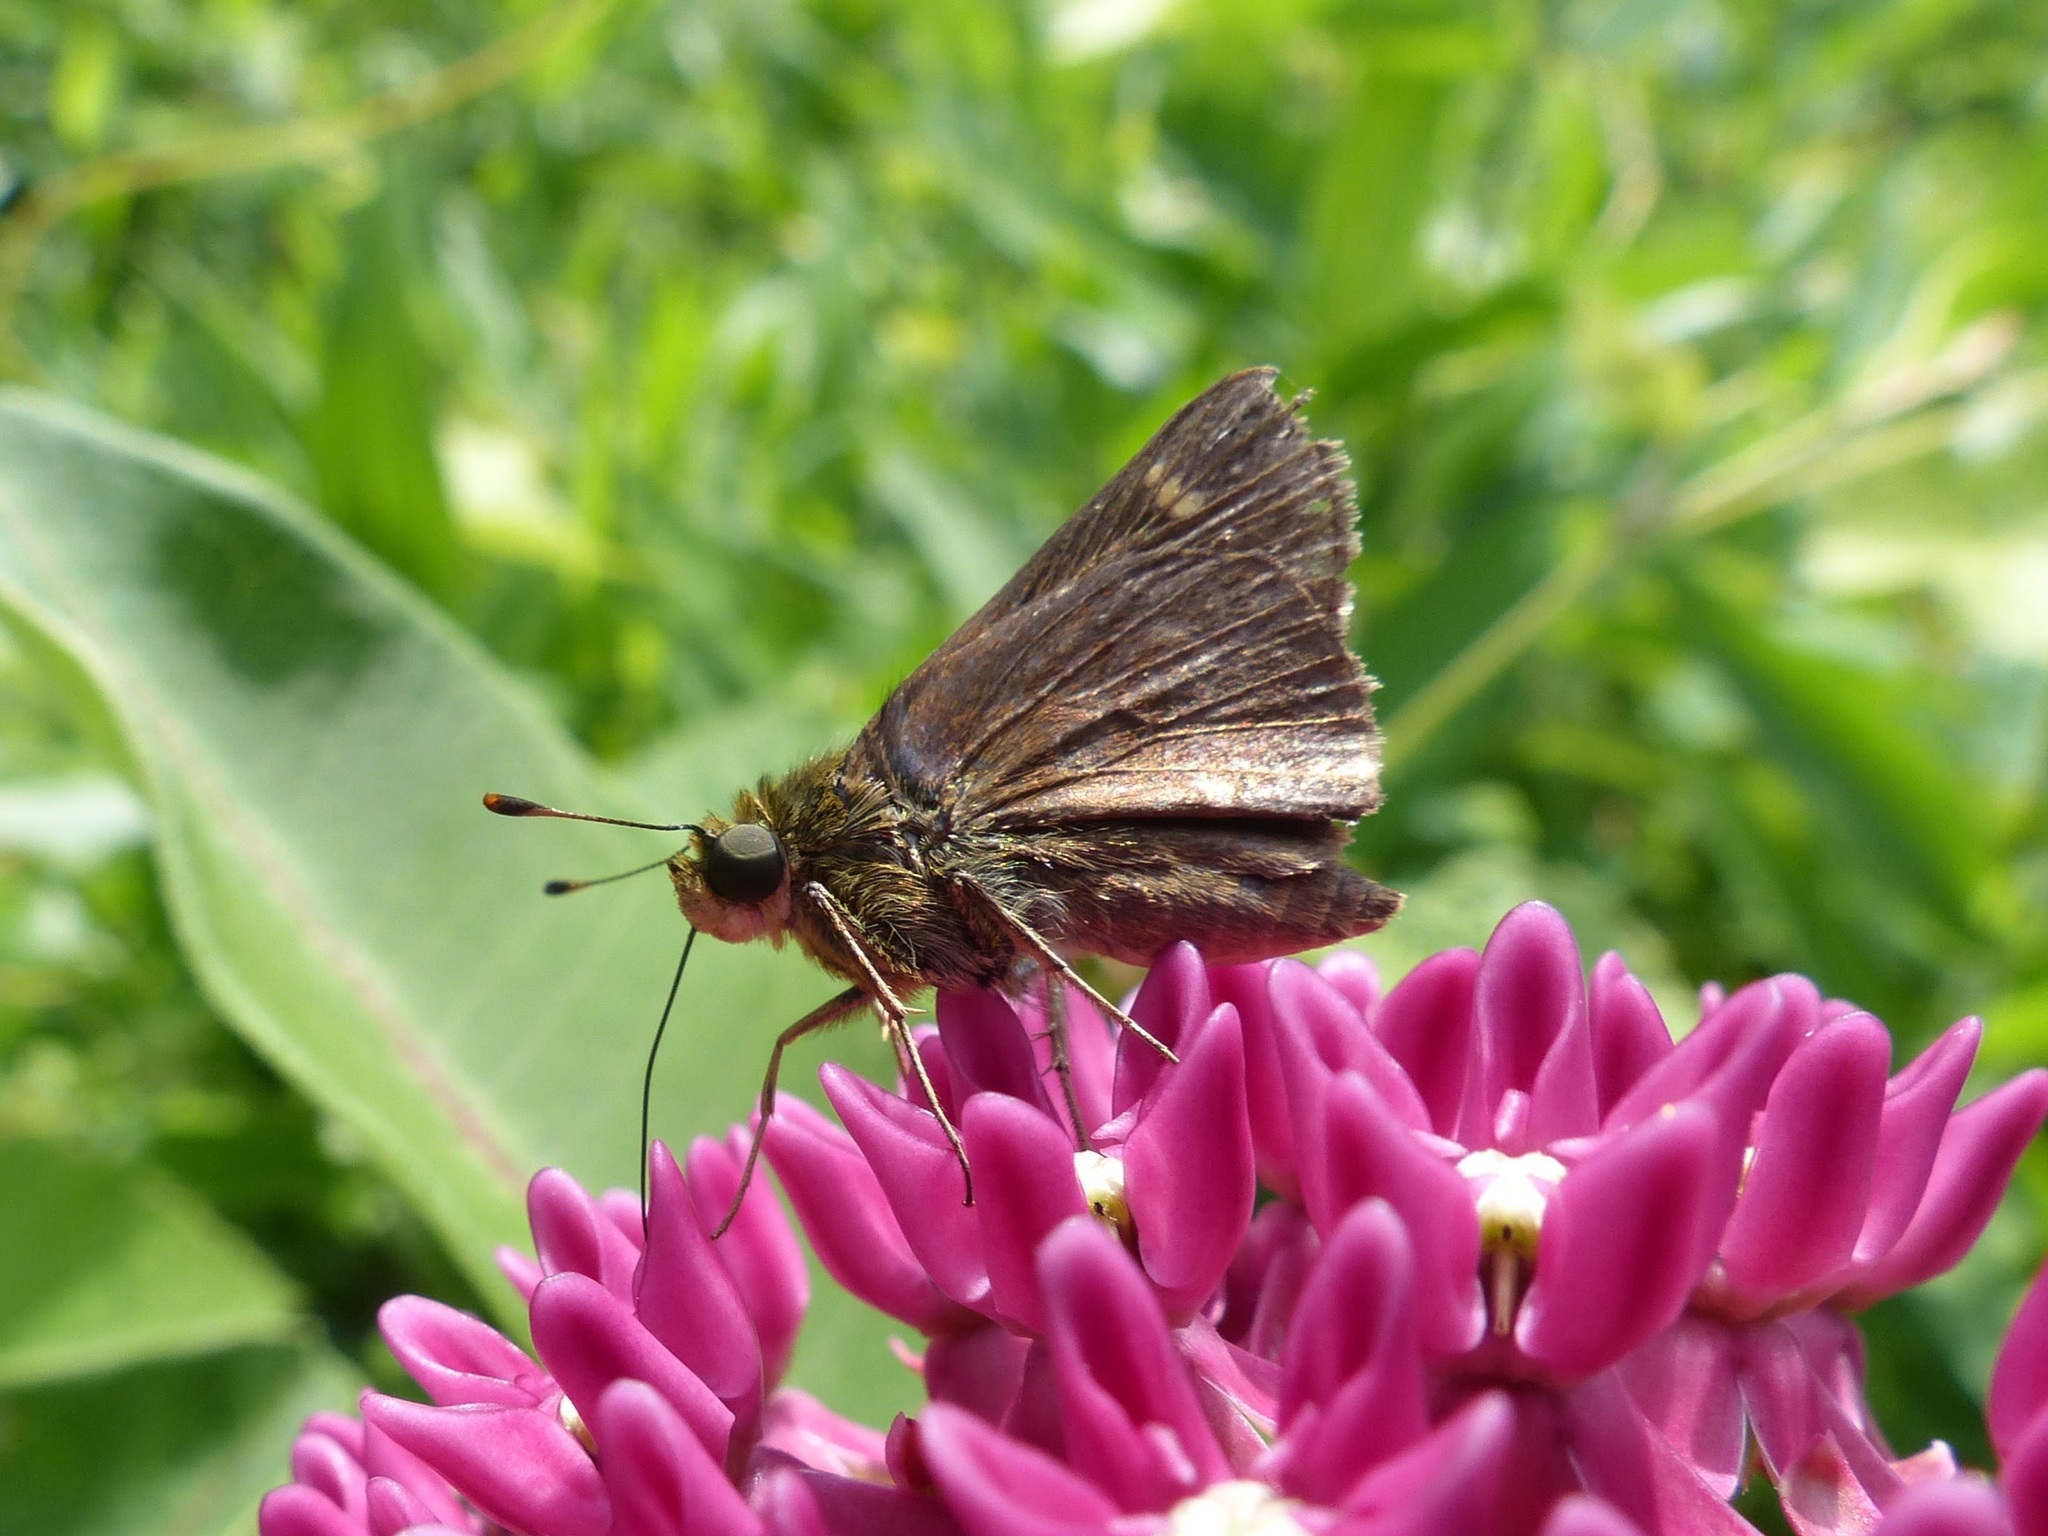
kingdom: Animalia
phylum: Arthropoda
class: Insecta
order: Lepidoptera
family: Hesperiidae
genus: Vernia
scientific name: Vernia verna
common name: Little glassywing
